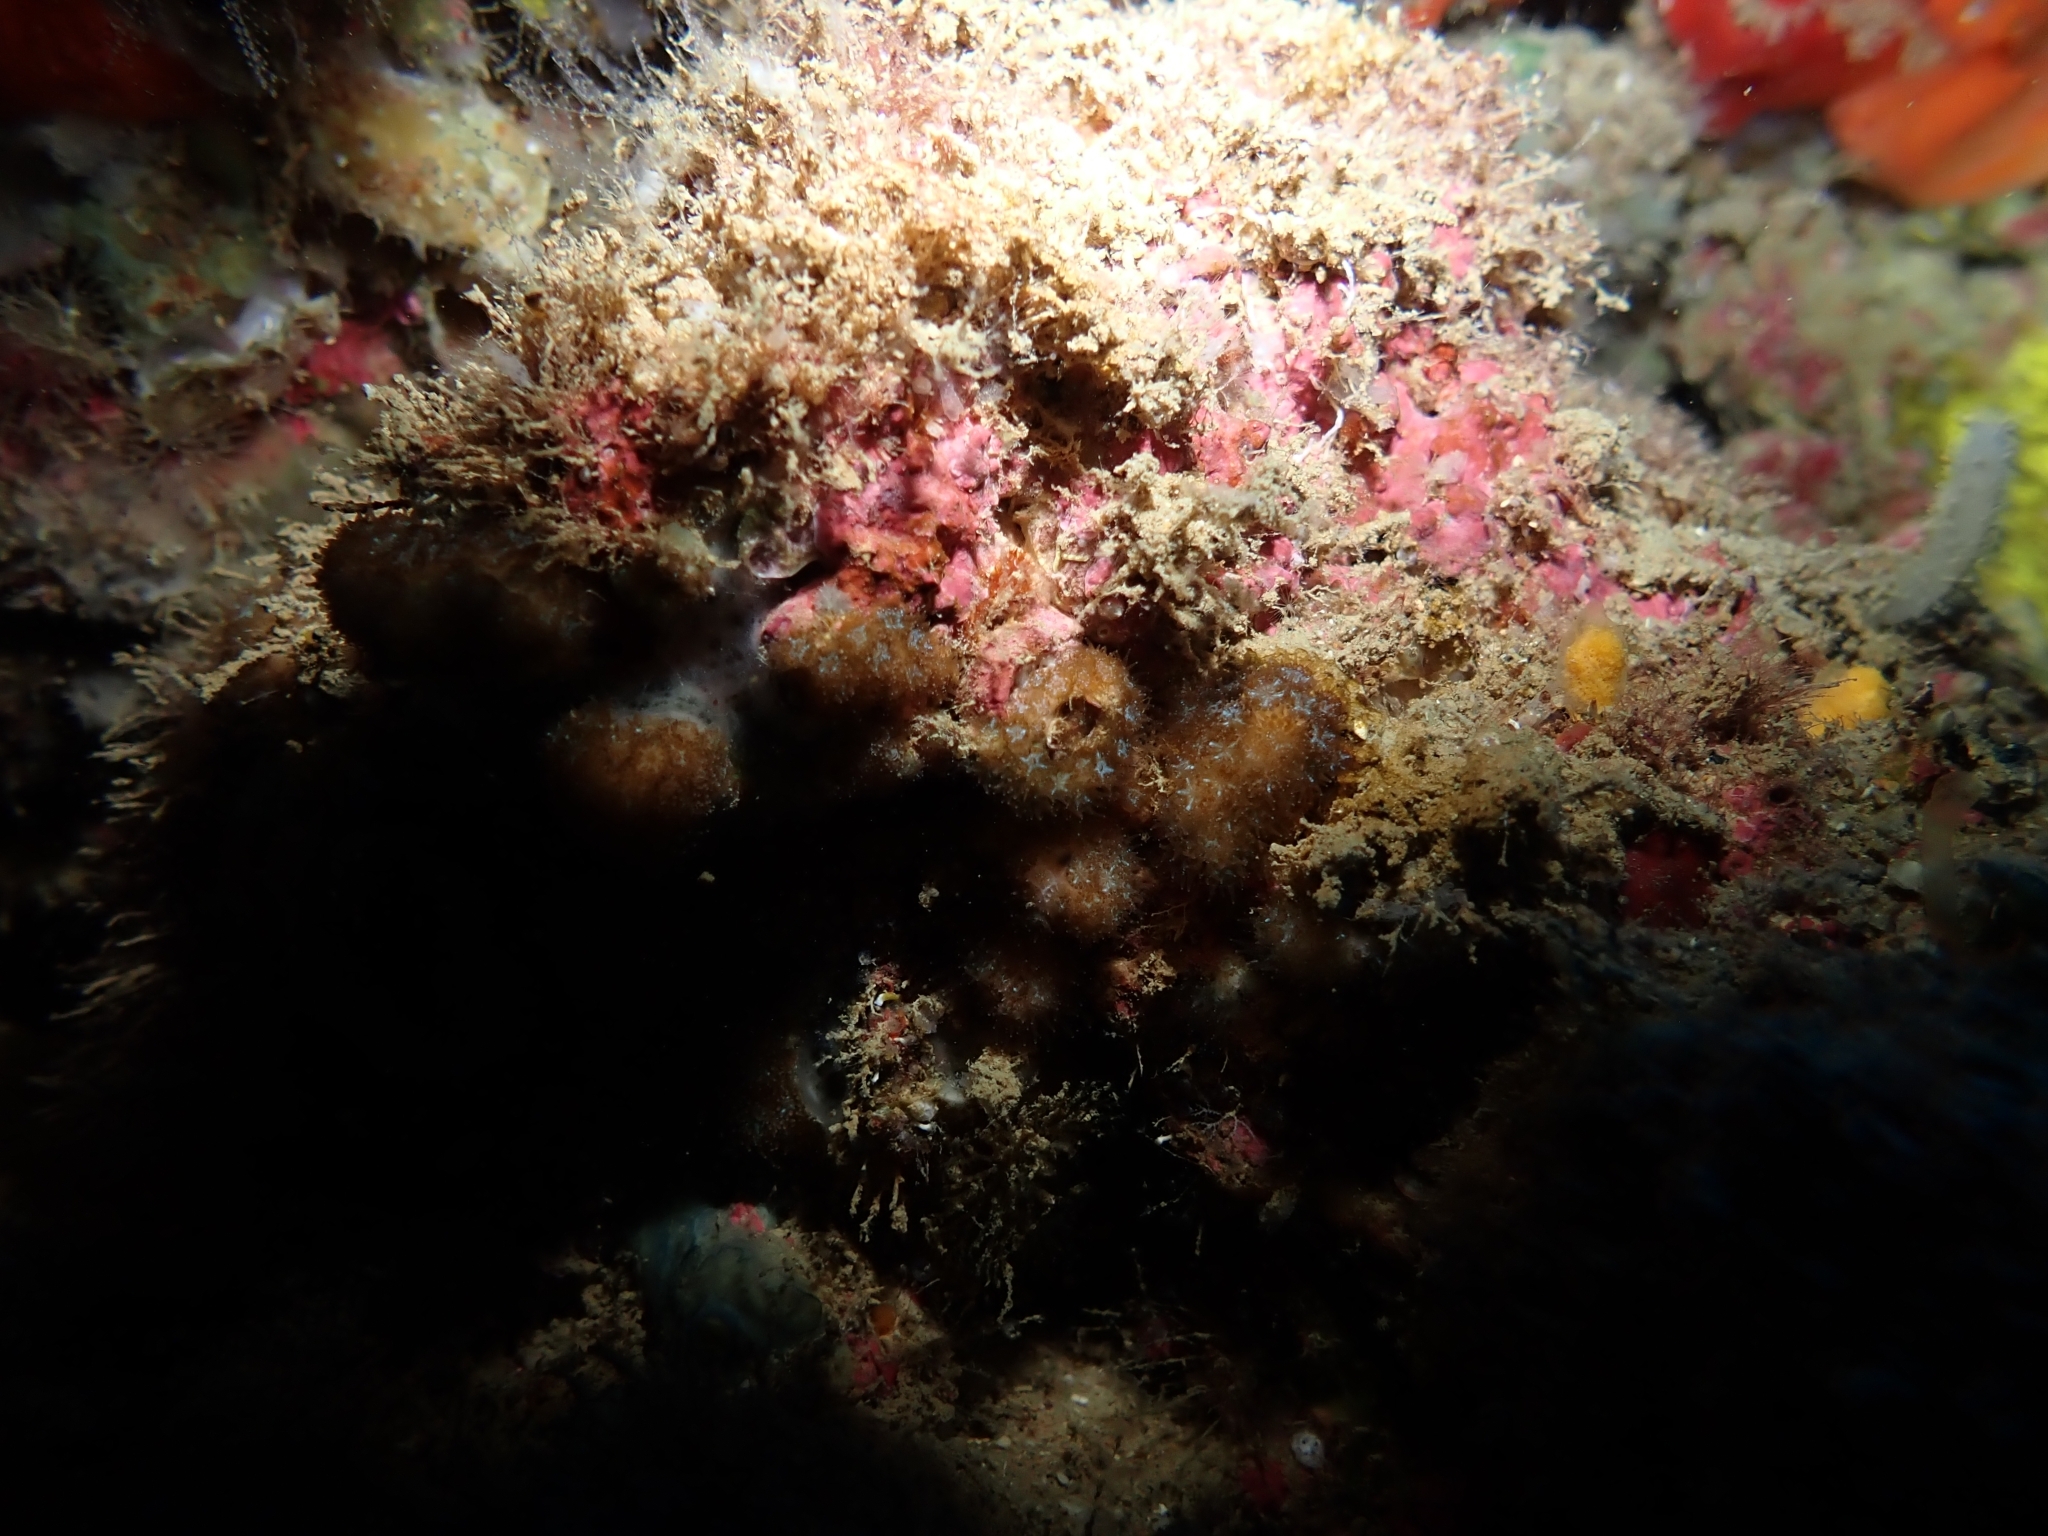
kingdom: Animalia
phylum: Cnidaria
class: Anthozoa
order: Scleractinia
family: Pocilloporidae
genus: Madracis
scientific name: Madracis pharensis
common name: Star coral
